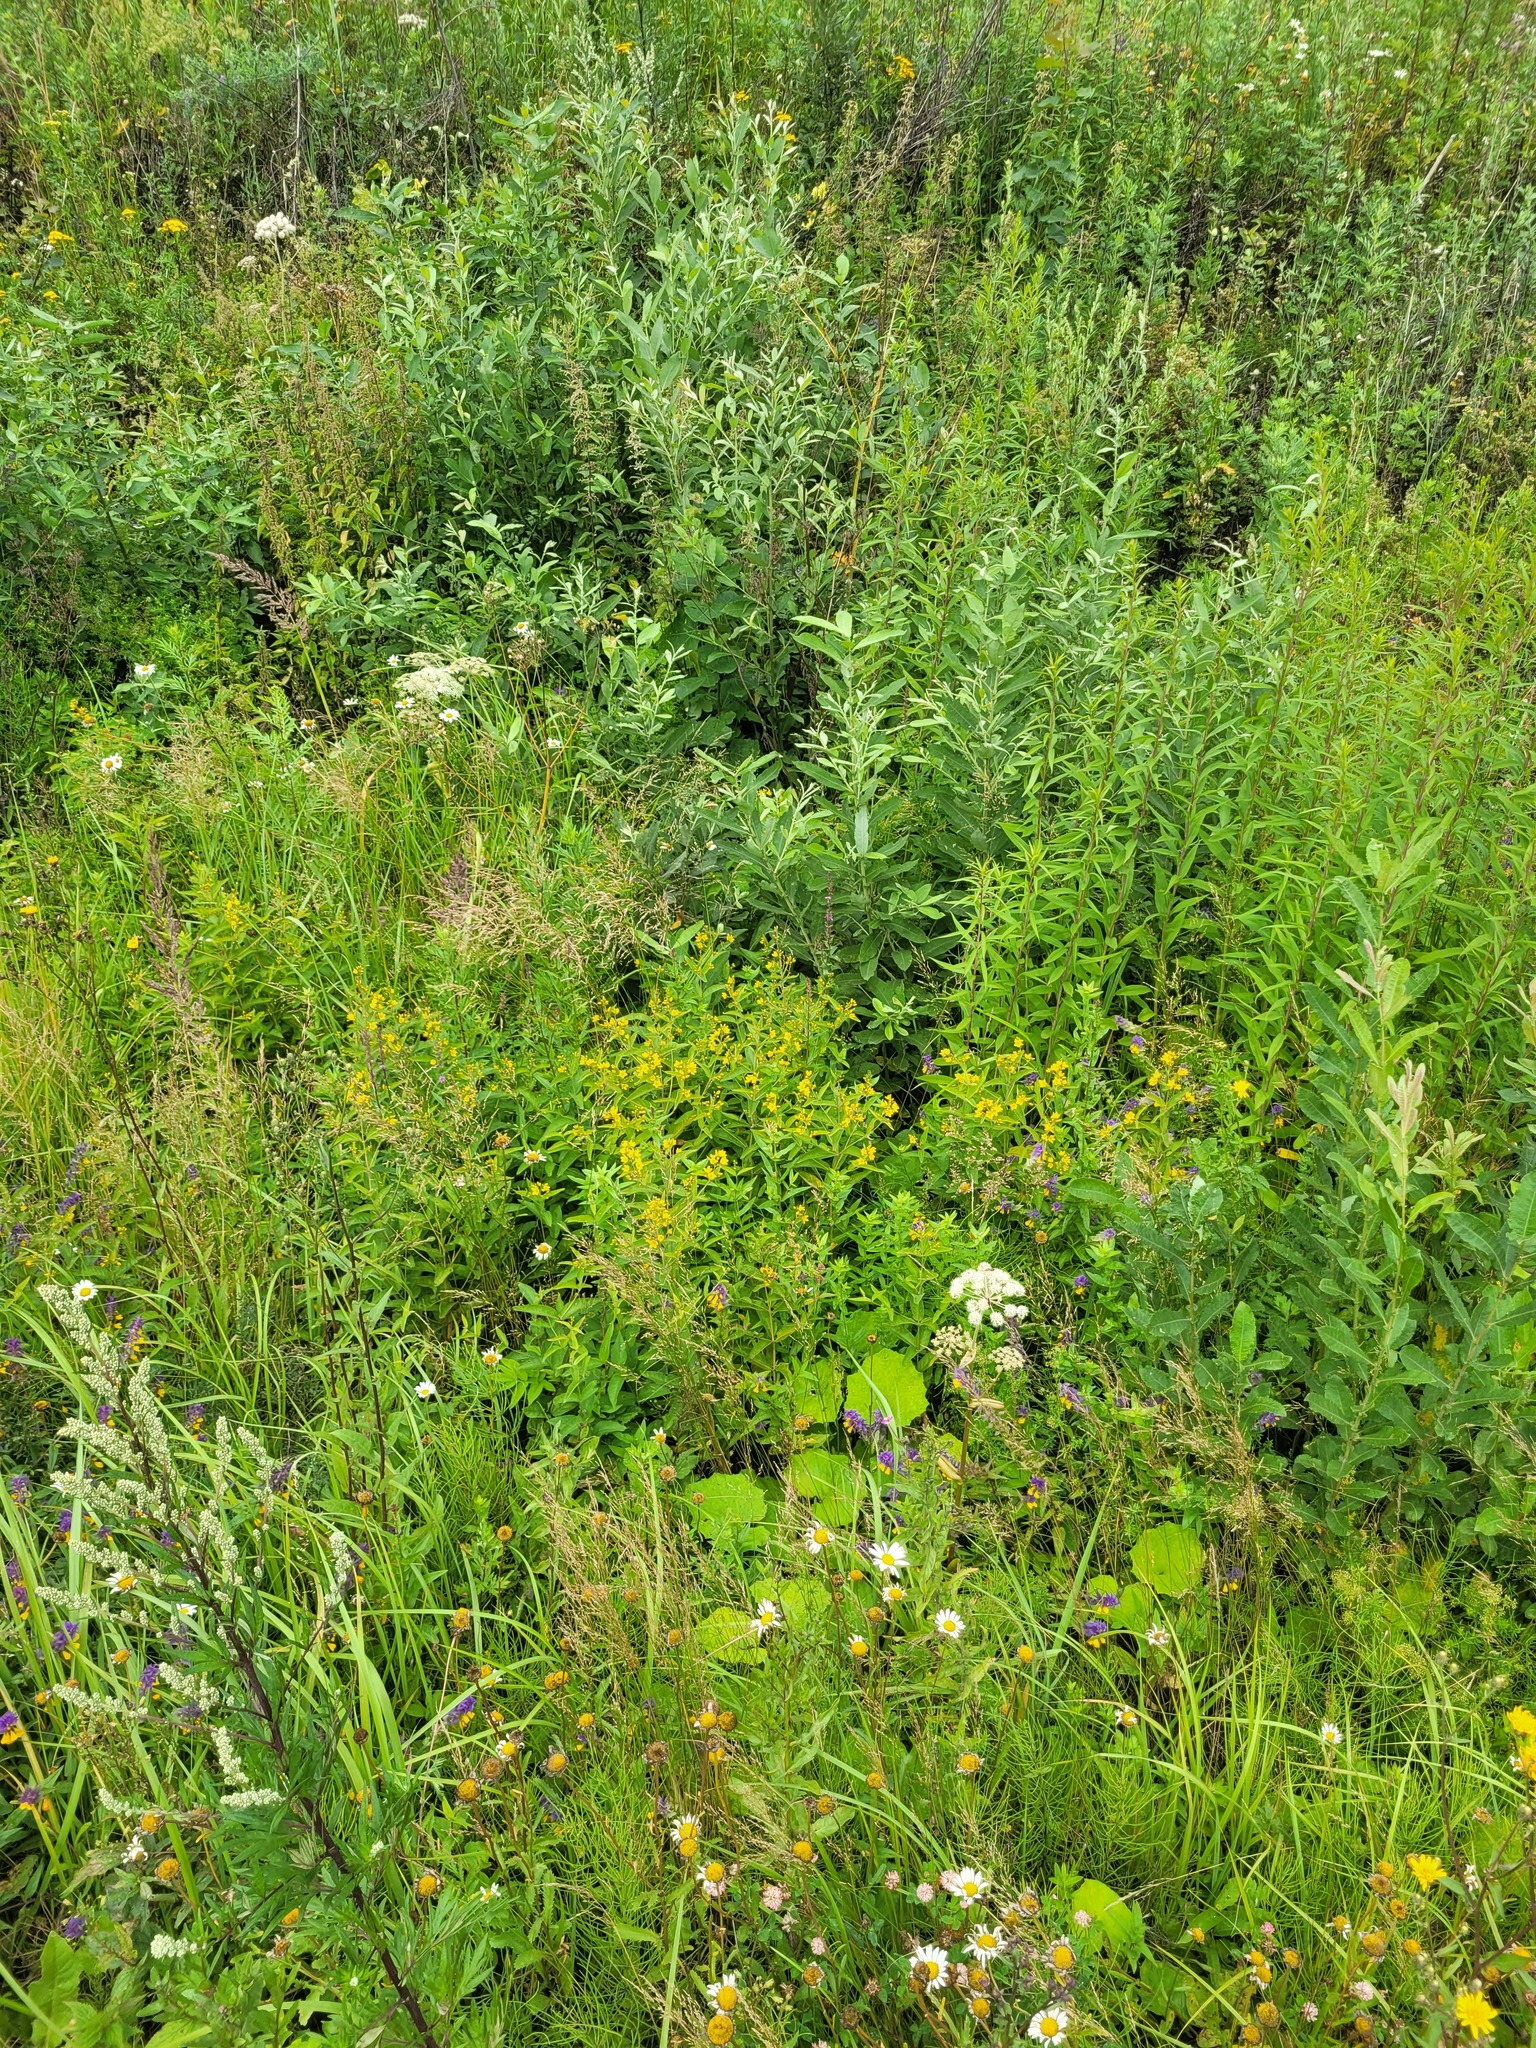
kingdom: Plantae
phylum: Tracheophyta
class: Magnoliopsida
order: Ericales
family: Primulaceae
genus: Lysimachia
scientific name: Lysimachia vulgaris
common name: Yellow loosestrife
